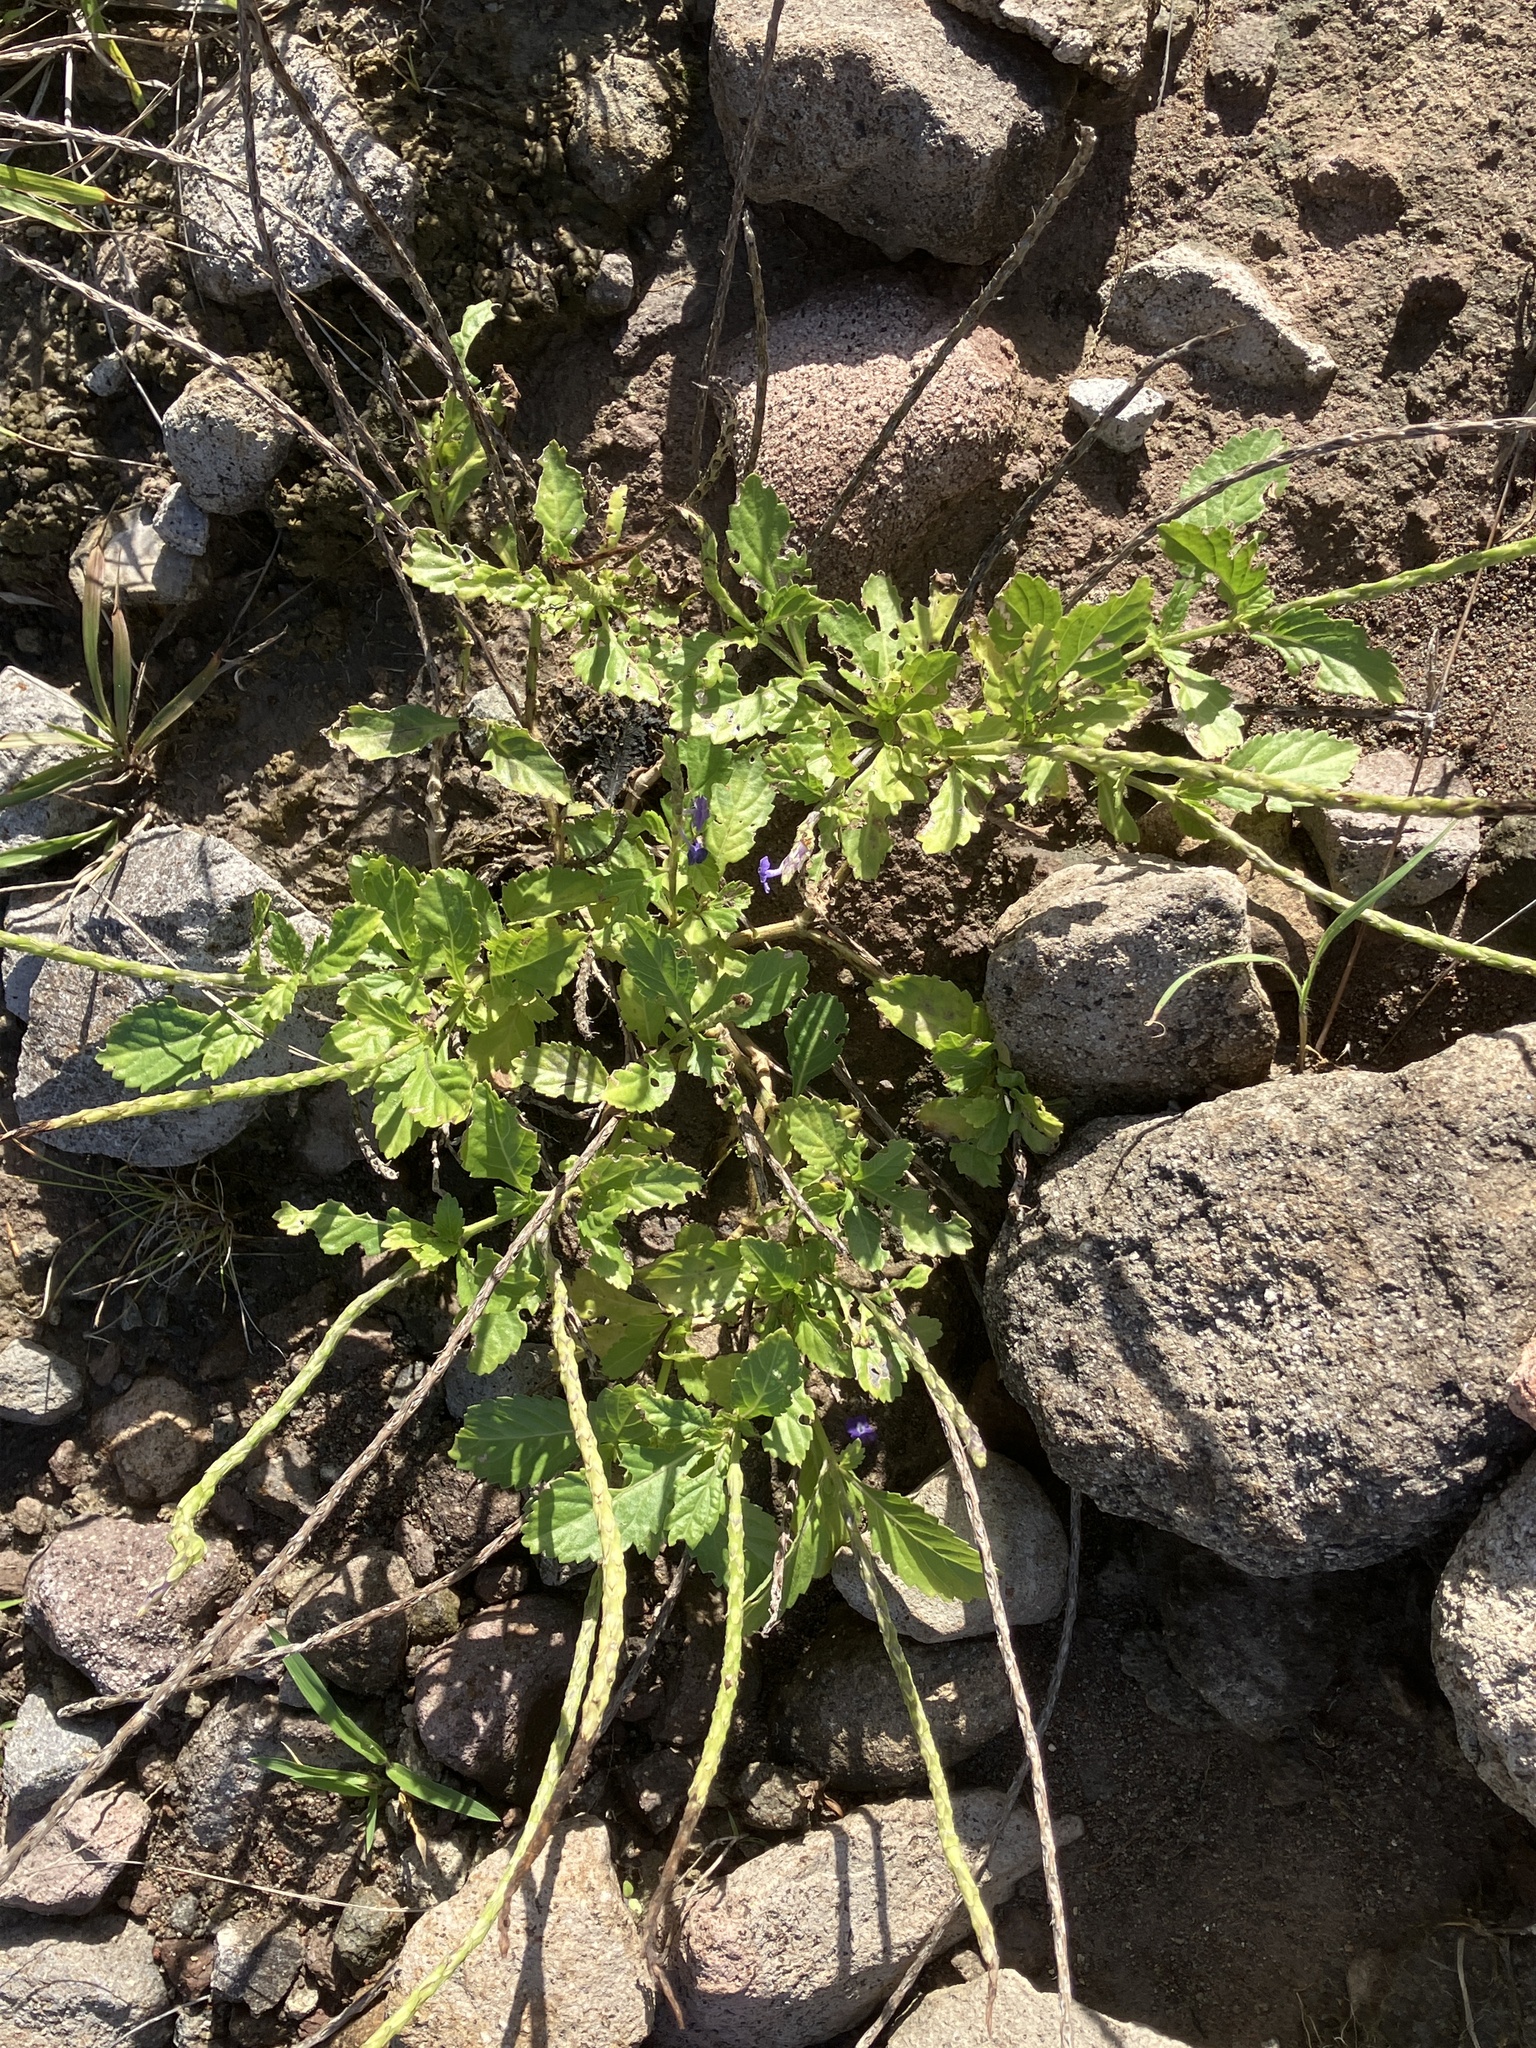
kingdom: Plantae
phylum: Tracheophyta
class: Magnoliopsida
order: Lamiales
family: Verbenaceae
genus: Stachytarpheta
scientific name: Stachytarpheta jamaicensis
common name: Light-blue snakeweed
